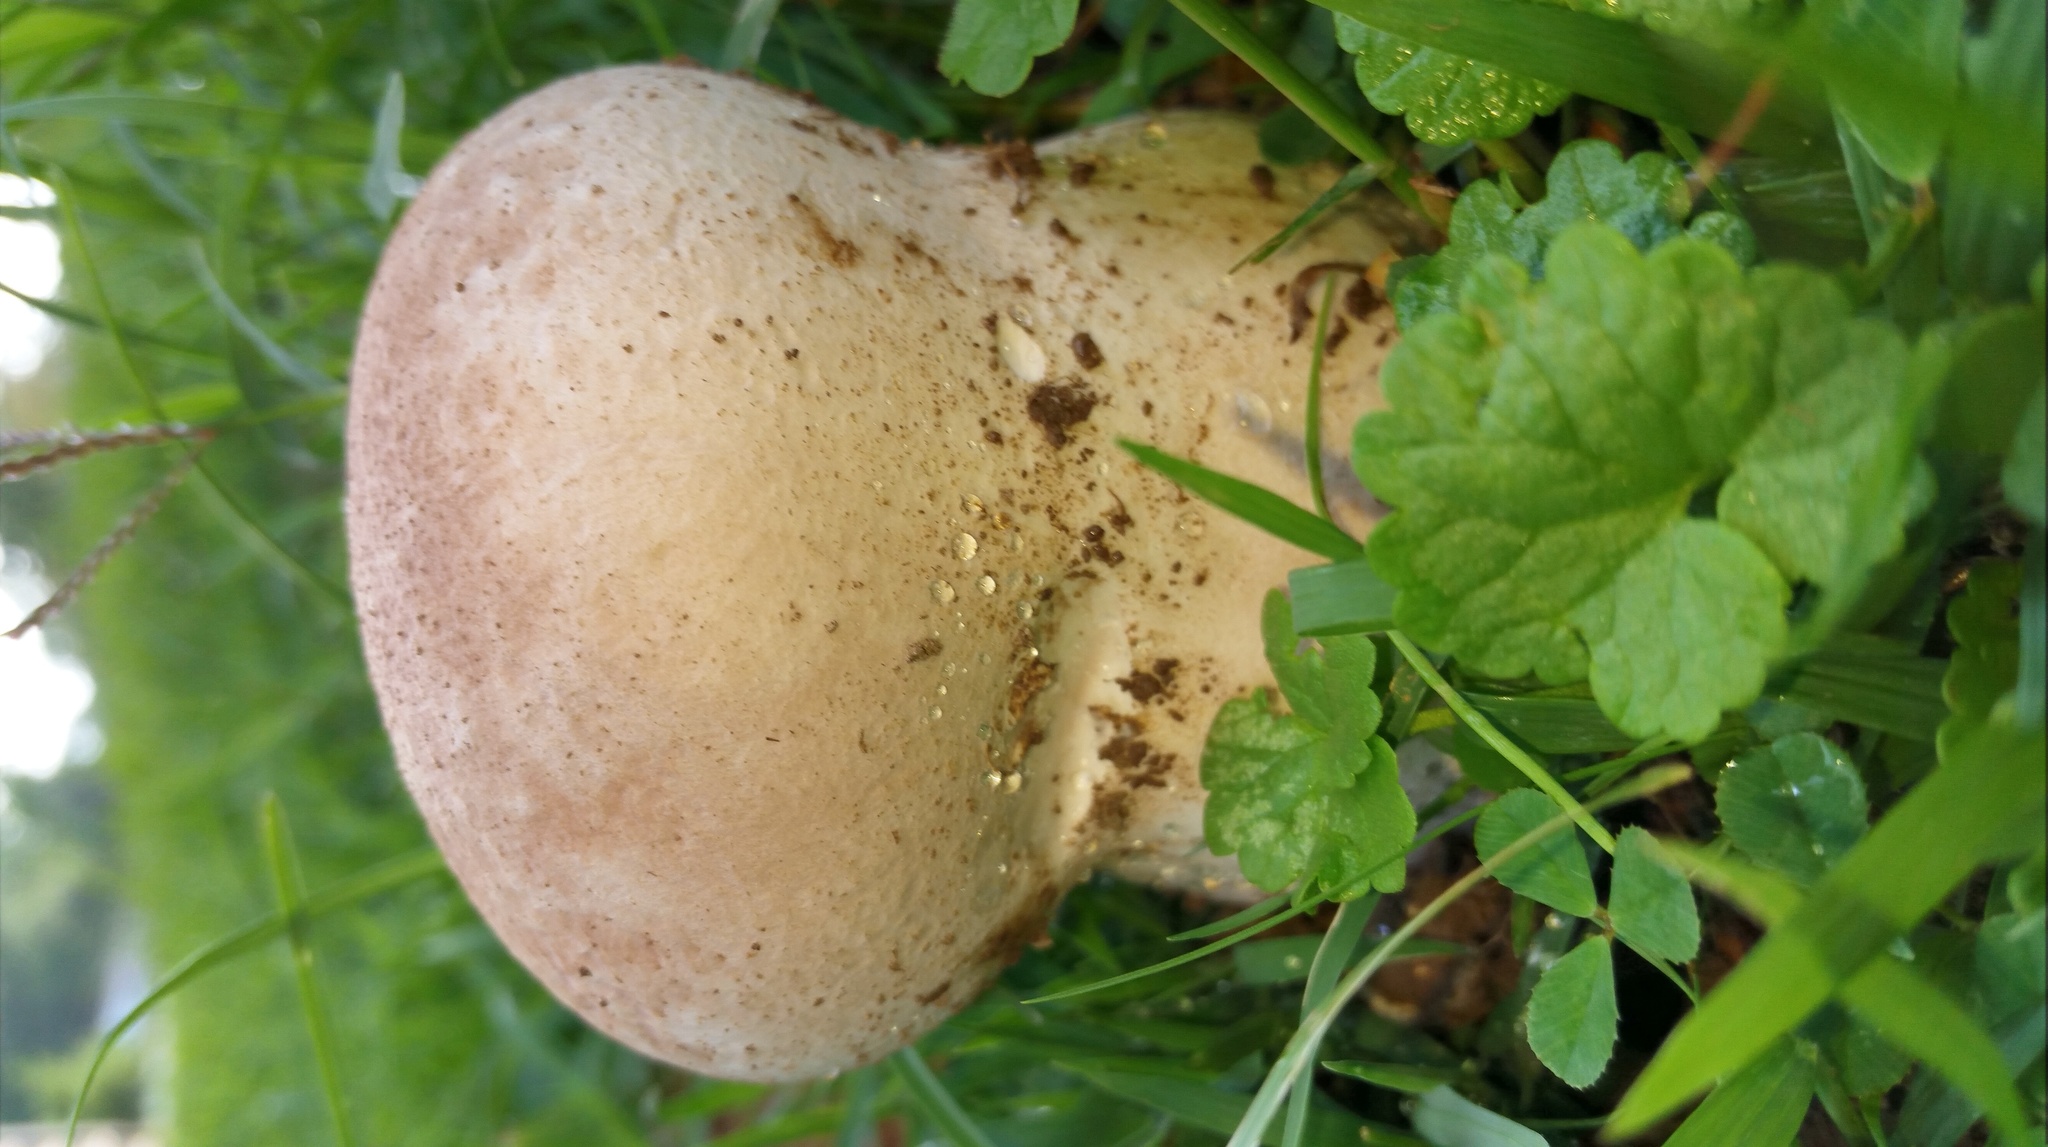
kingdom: Fungi
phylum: Basidiomycota
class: Agaricomycetes
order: Agaricales
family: Lycoperdaceae
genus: Calvatia
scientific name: Calvatia cyathiformis
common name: Purple-spored puffball
